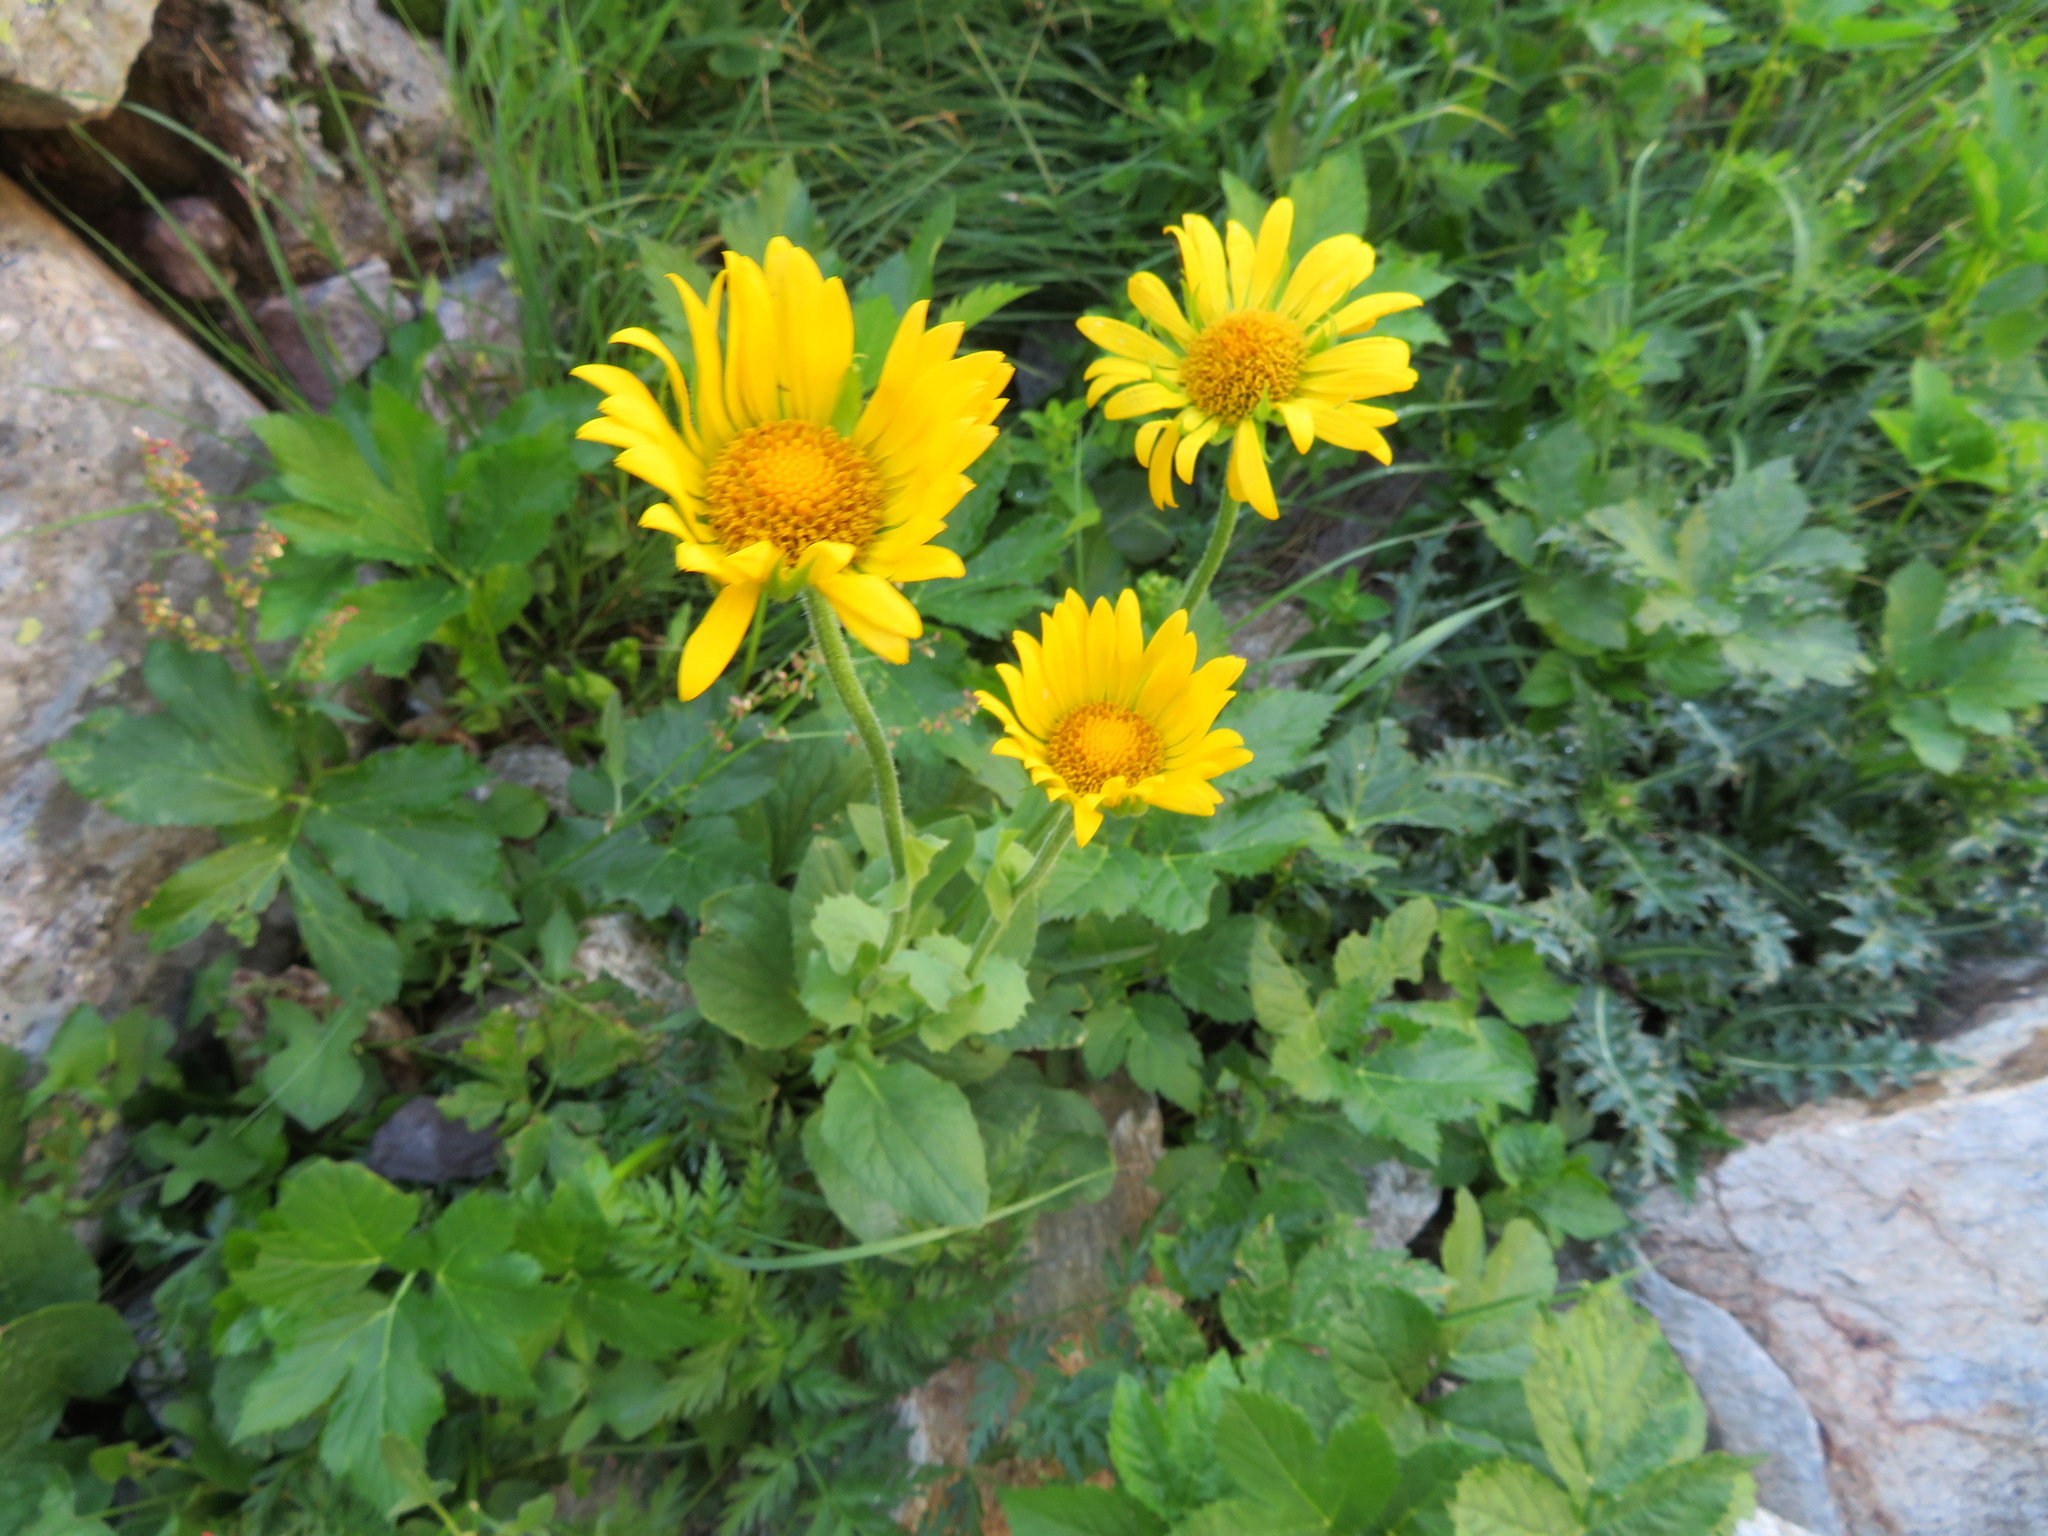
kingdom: Plantae
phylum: Tracheophyta
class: Magnoliopsida
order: Asterales
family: Asteraceae
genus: Doronicum
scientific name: Doronicum grandiflorum
